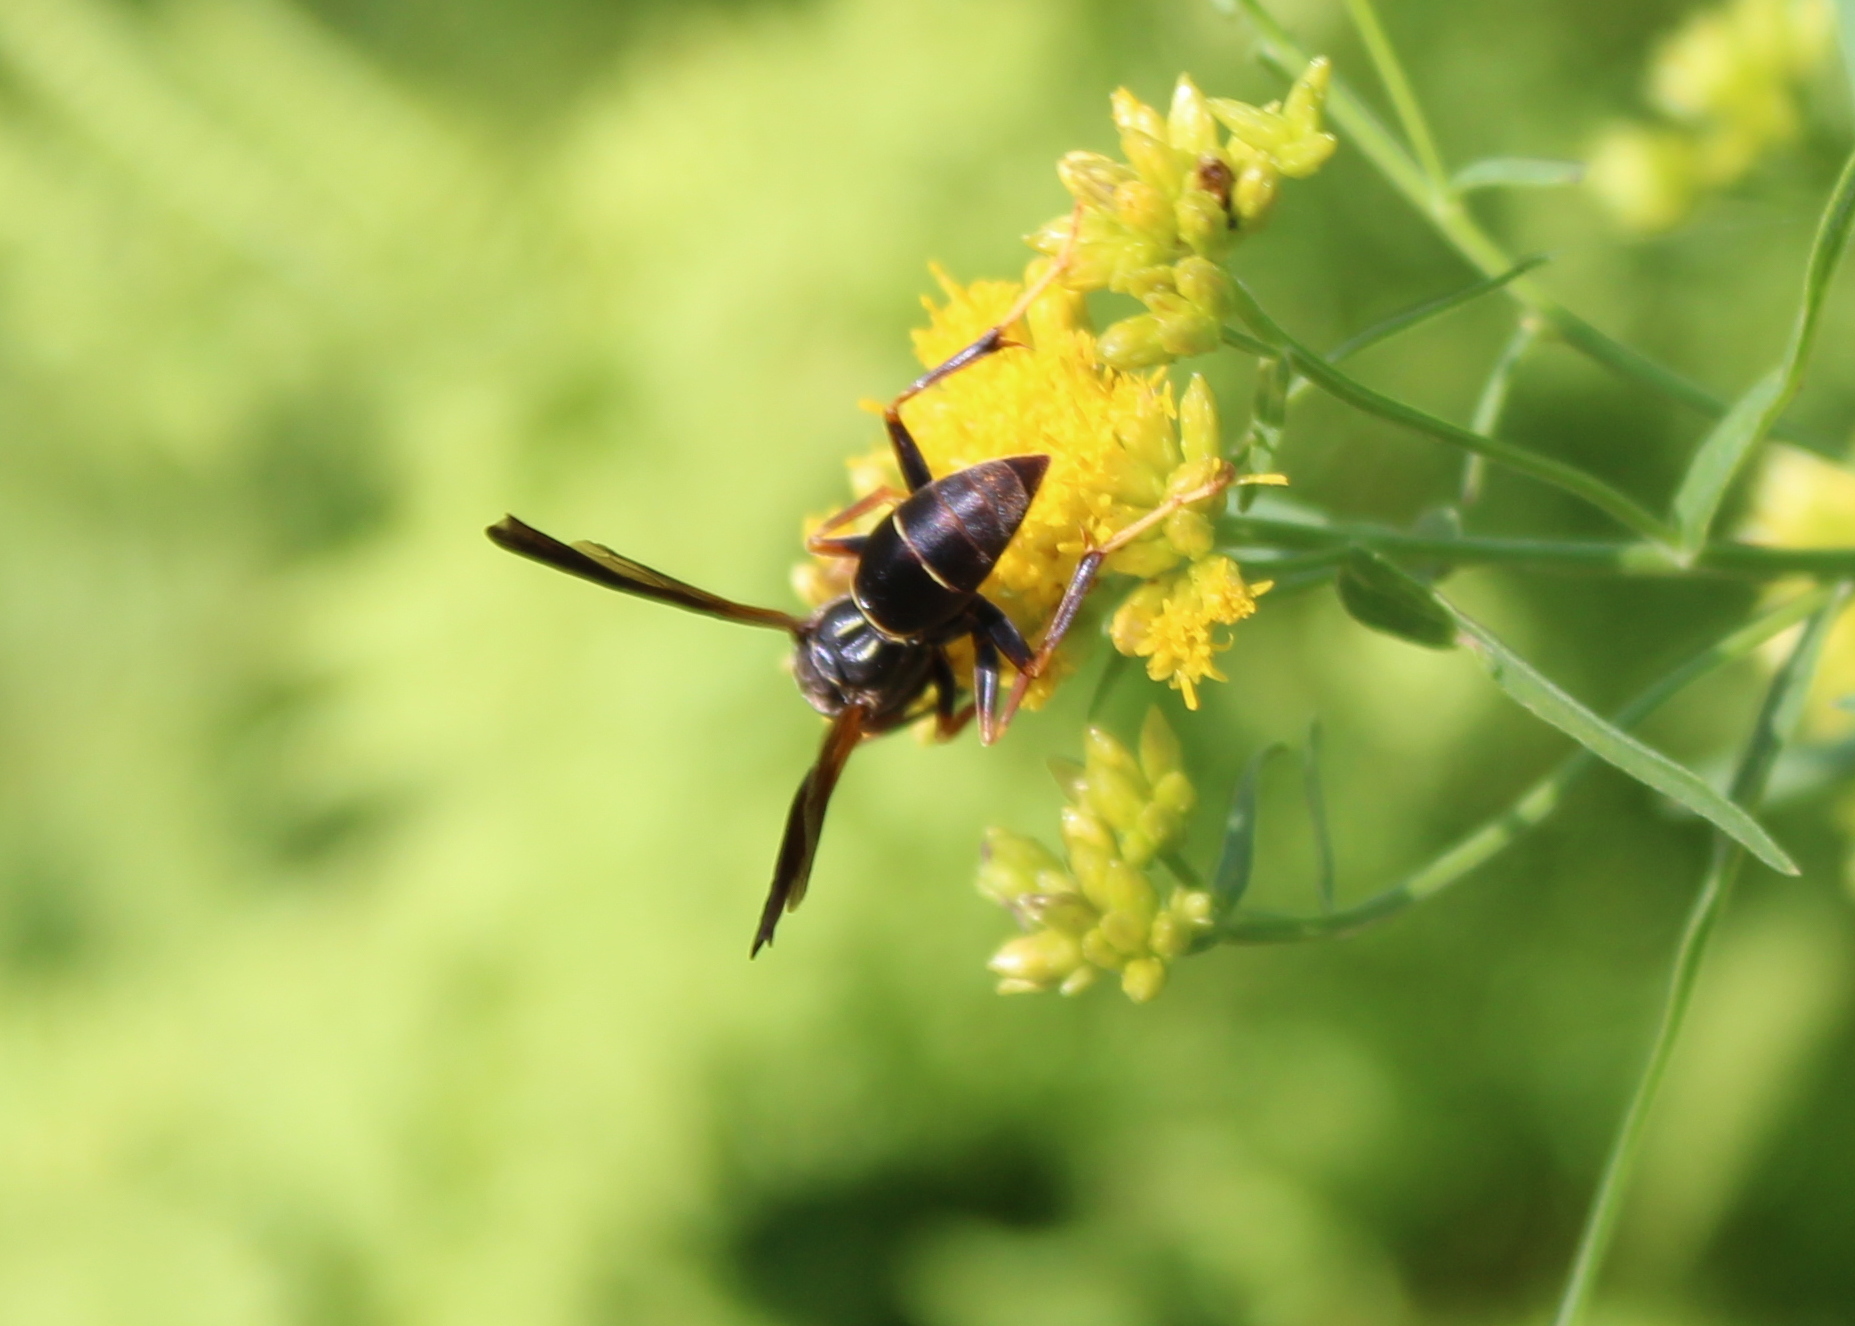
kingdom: Animalia
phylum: Arthropoda
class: Insecta
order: Hymenoptera
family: Eumenidae
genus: Polistes
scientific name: Polistes fuscatus
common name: Dark paper wasp
